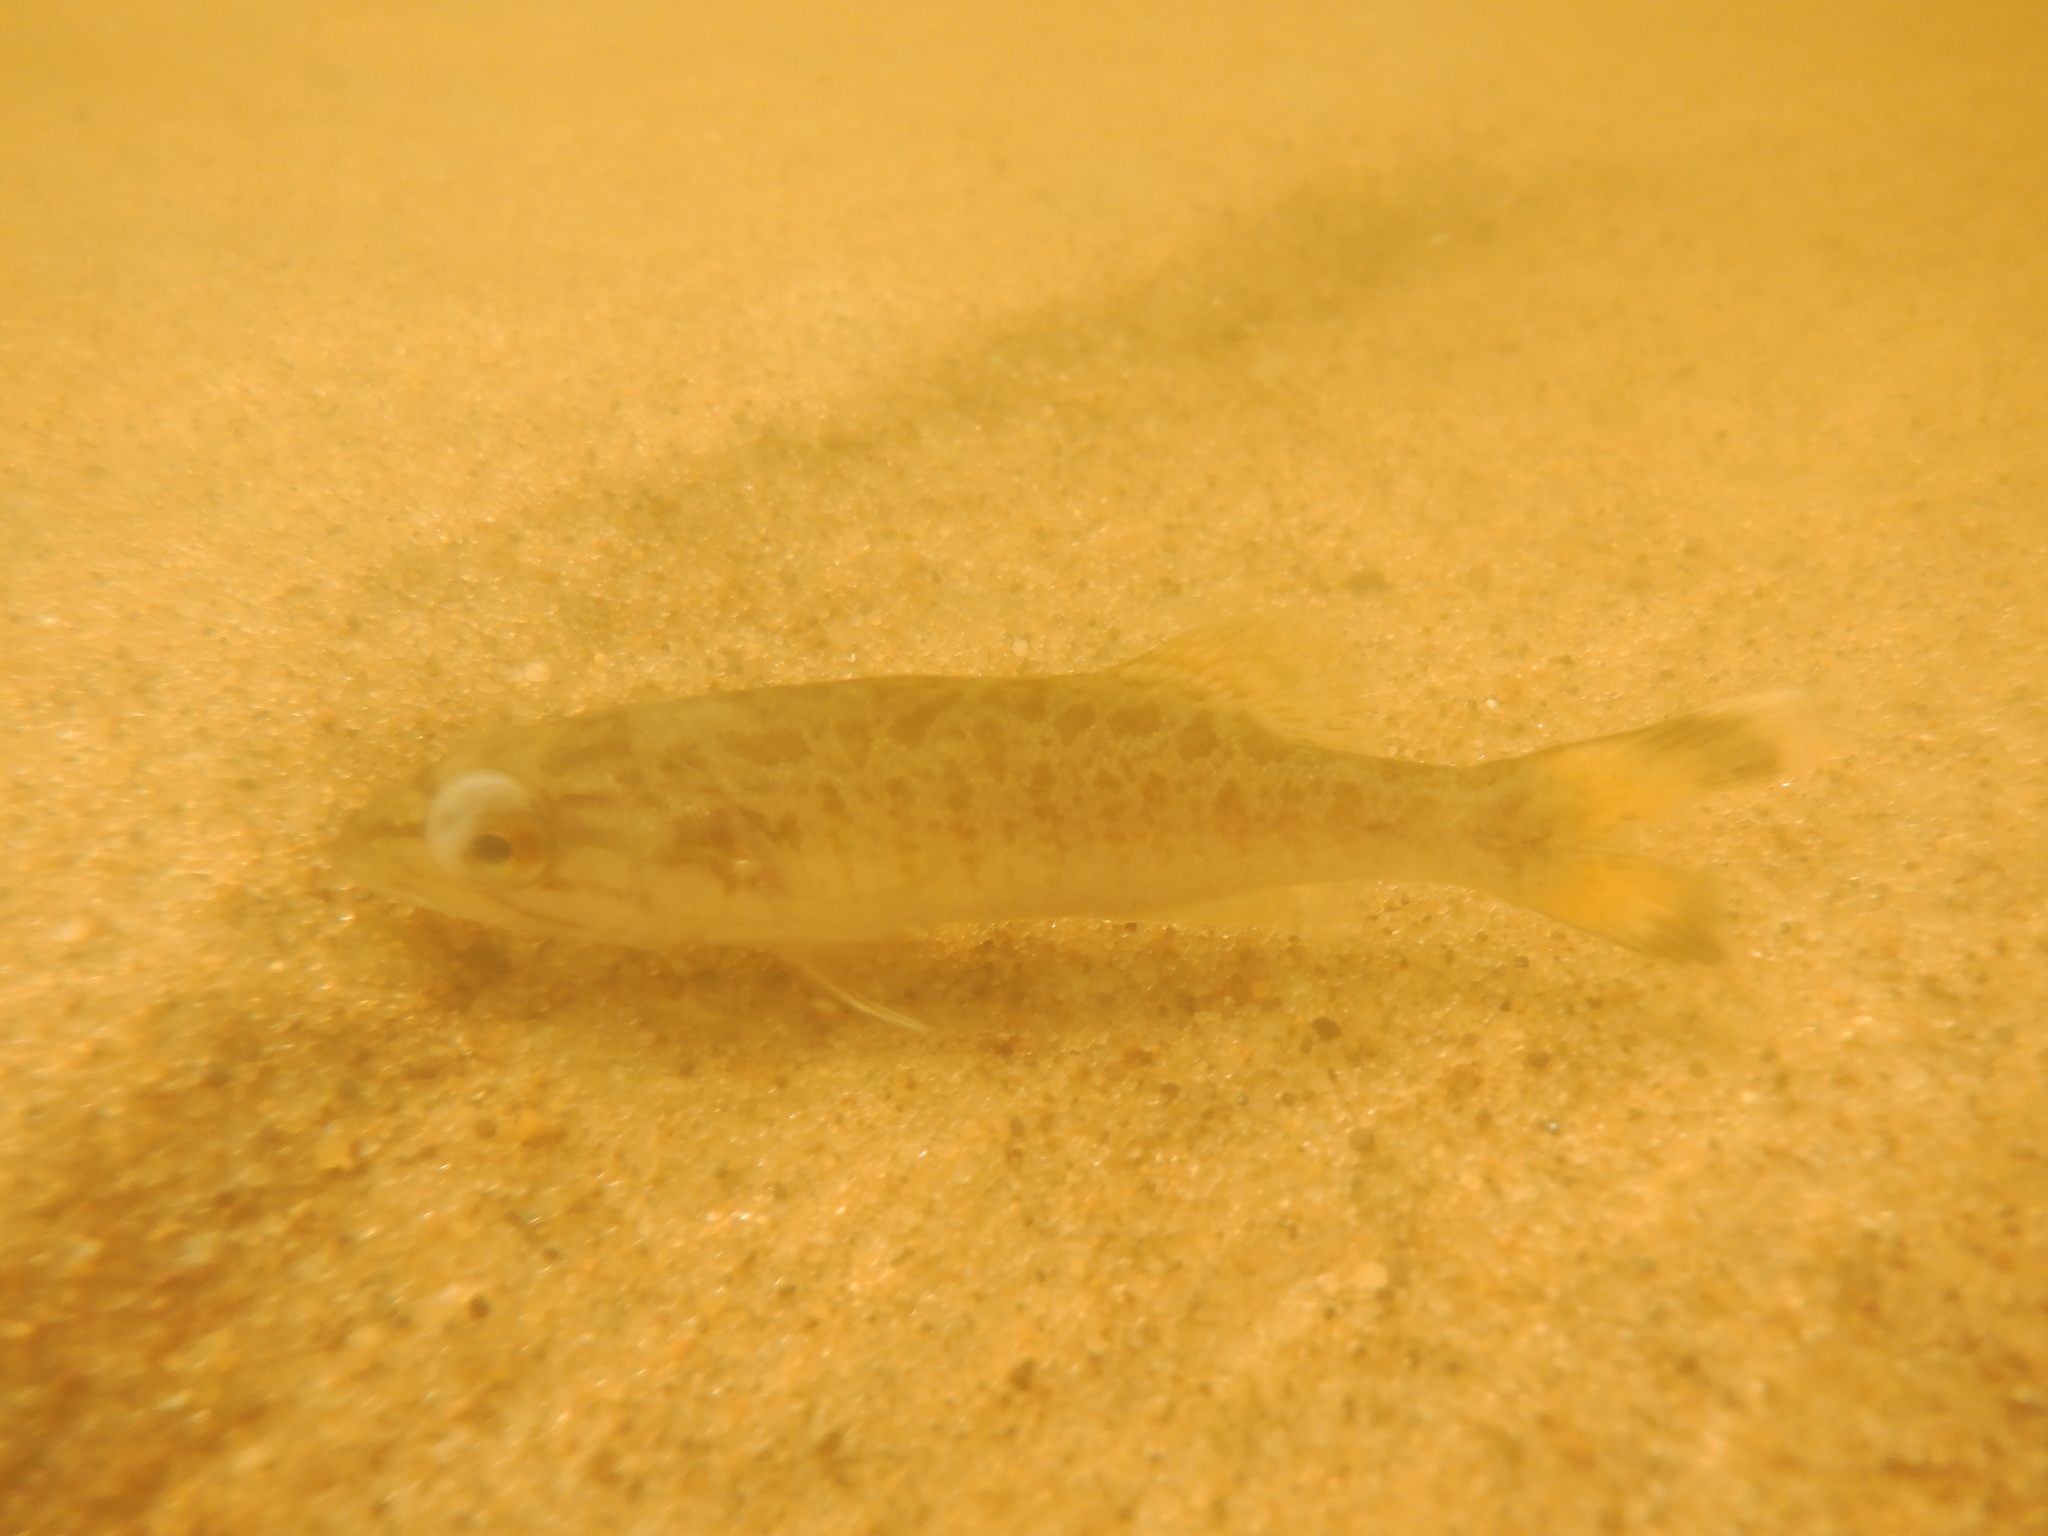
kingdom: Animalia
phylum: Chordata
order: Perciformes
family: Centrarchidae
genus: Micropterus
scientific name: Micropterus dolomieu
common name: Smallmouth bass
